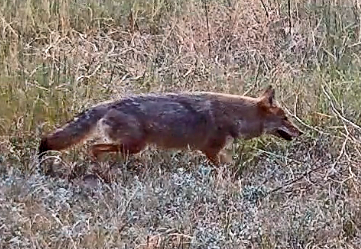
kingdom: Animalia
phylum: Chordata
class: Mammalia
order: Carnivora
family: Canidae
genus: Canis
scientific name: Canis latrans
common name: Coyote
